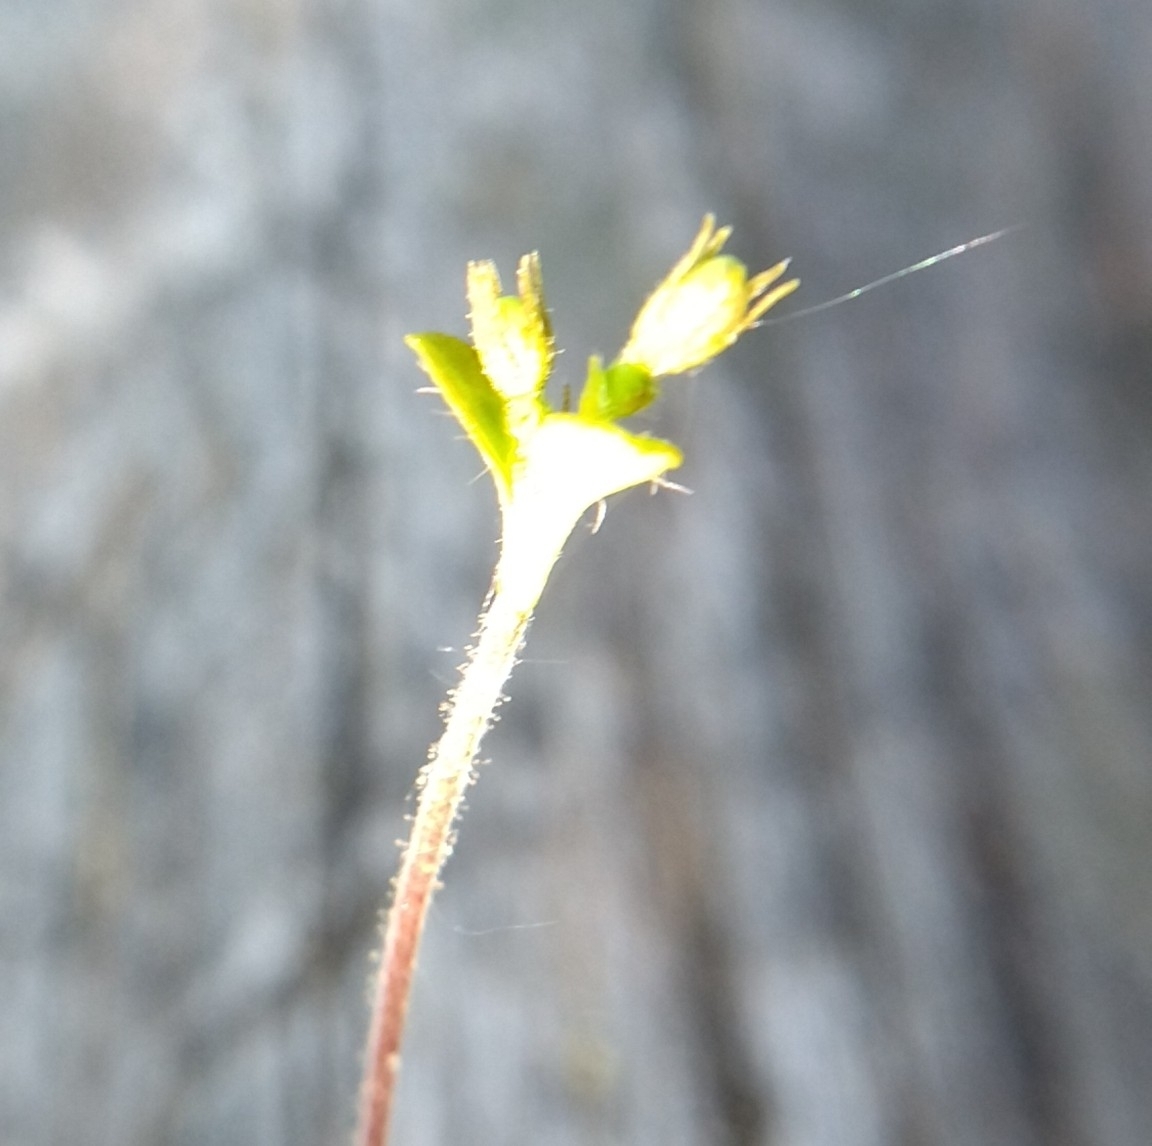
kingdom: Plantae
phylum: Tracheophyta
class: Magnoliopsida
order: Dipsacales
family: Caprifoliaceae
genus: Linnaea
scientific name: Linnaea borealis
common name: Twinflower
